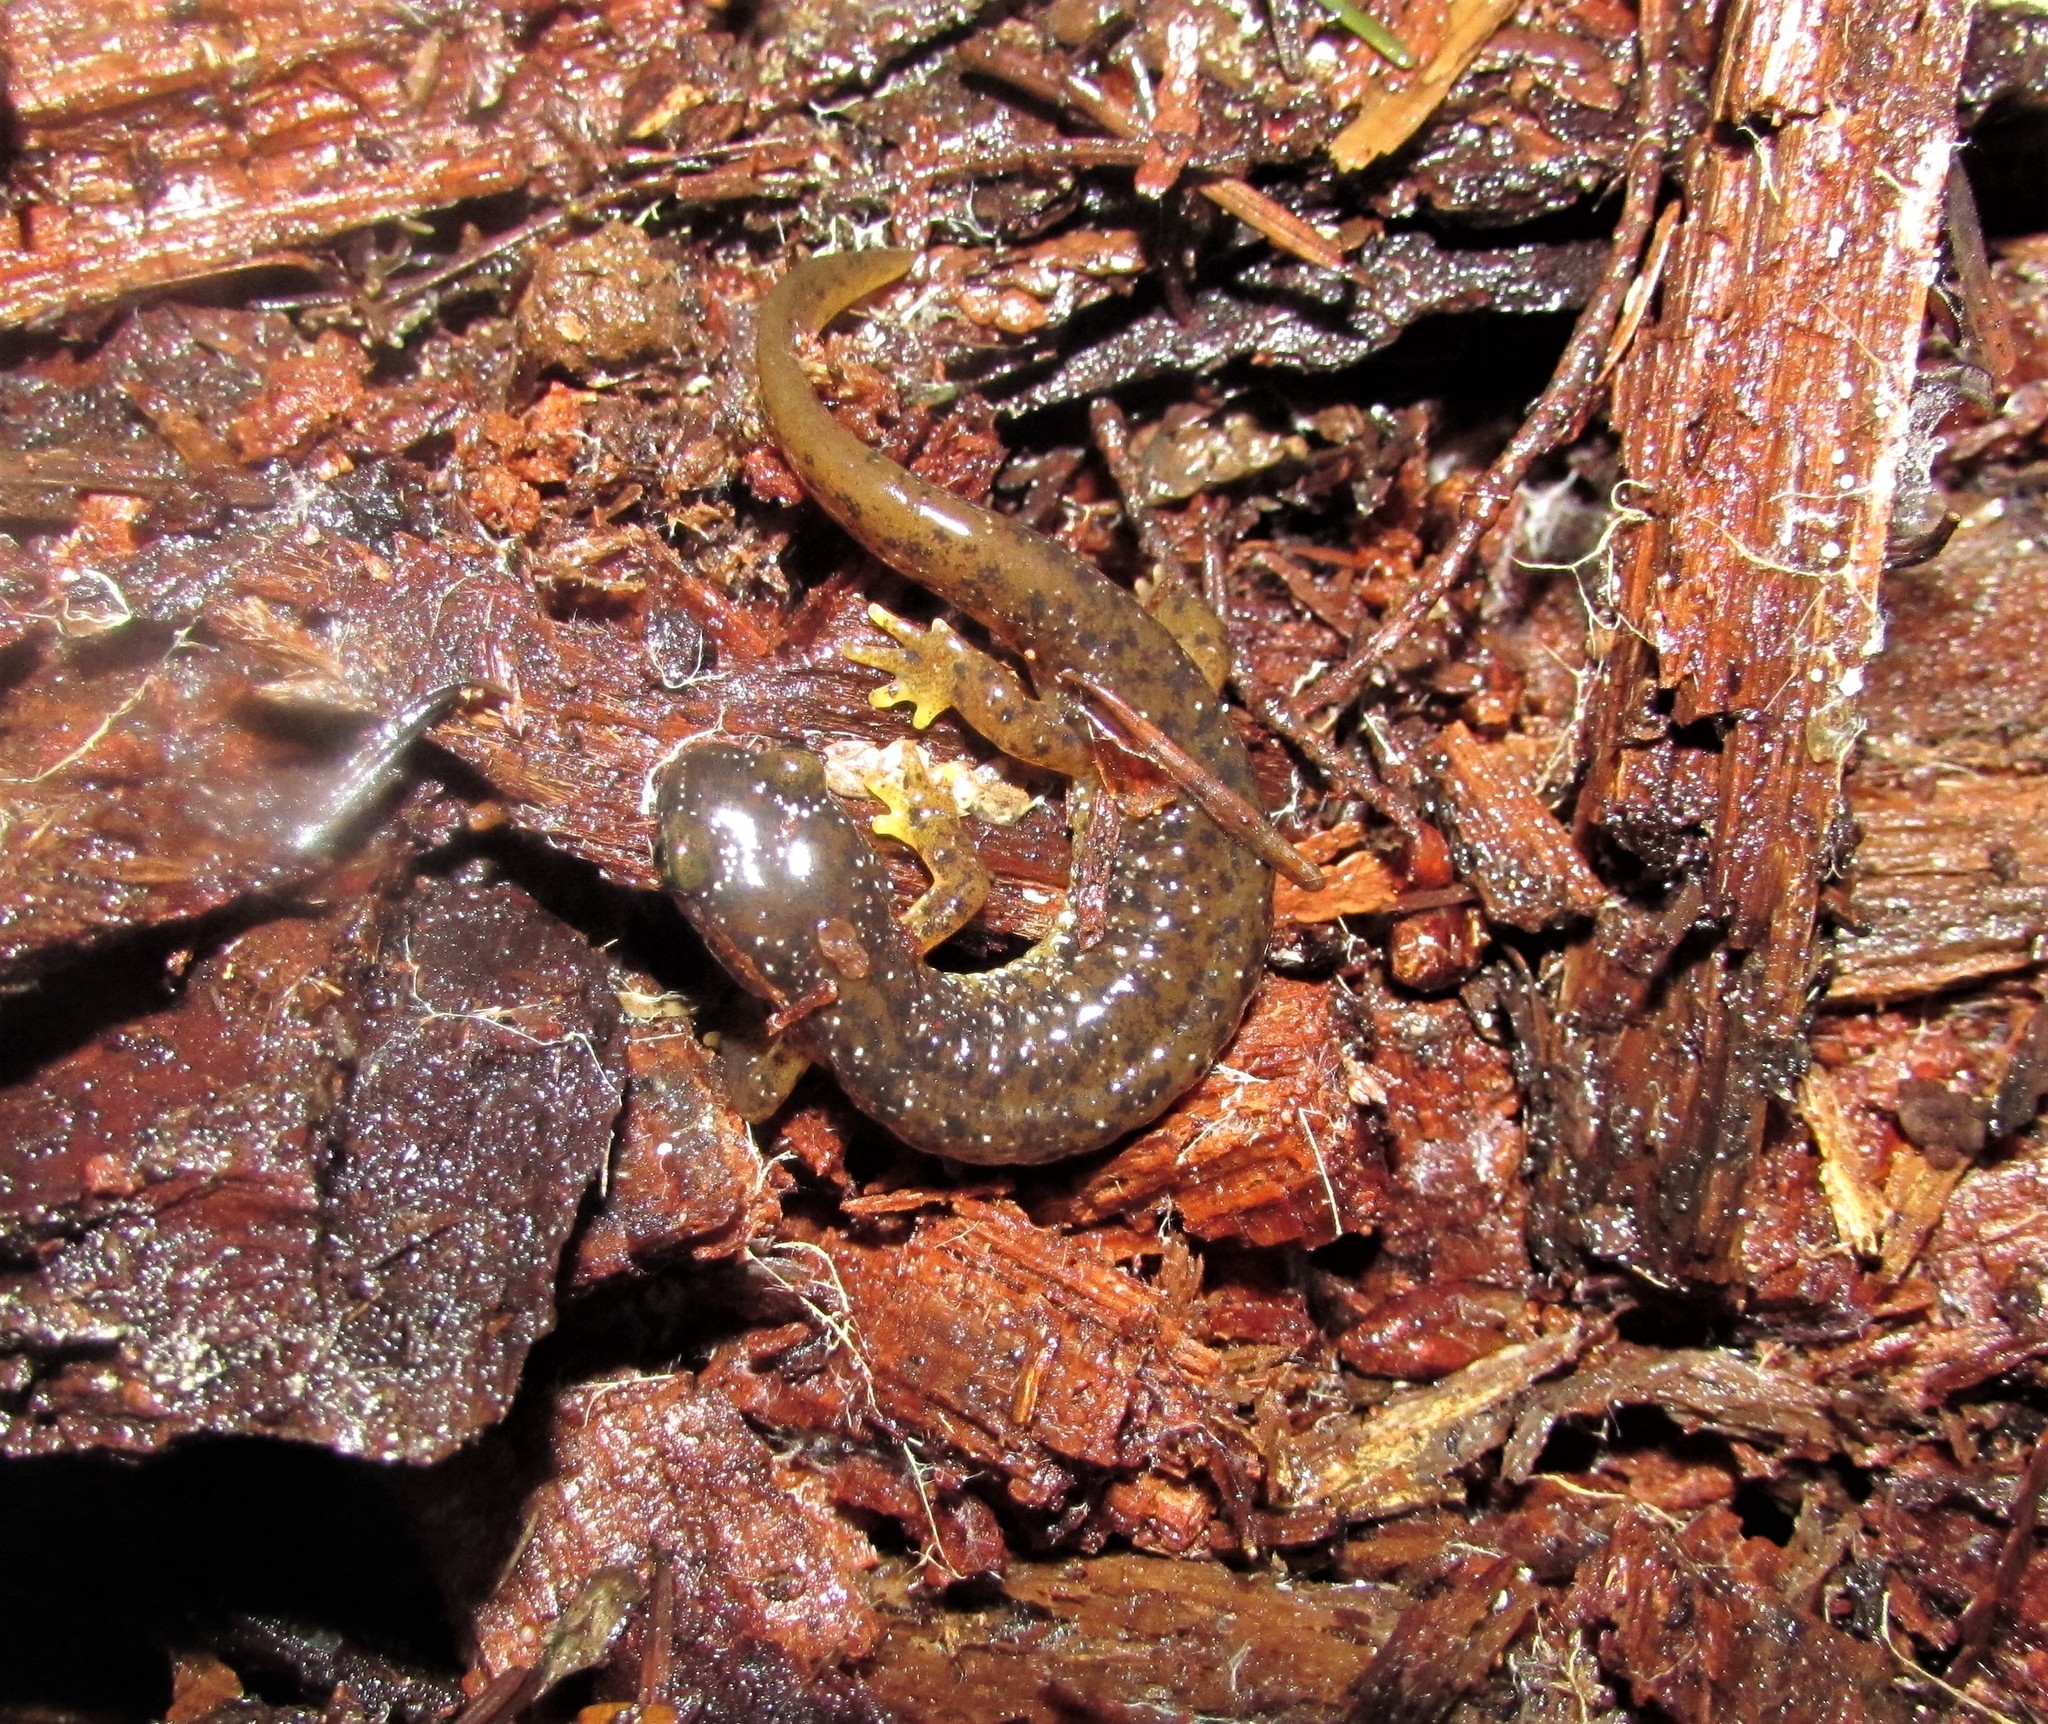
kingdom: Animalia
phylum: Chordata
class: Amphibia
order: Caudata
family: Rhyacotritonidae
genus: Rhyacotriton
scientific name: Rhyacotriton cascadae
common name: Cascade torrent salamander
